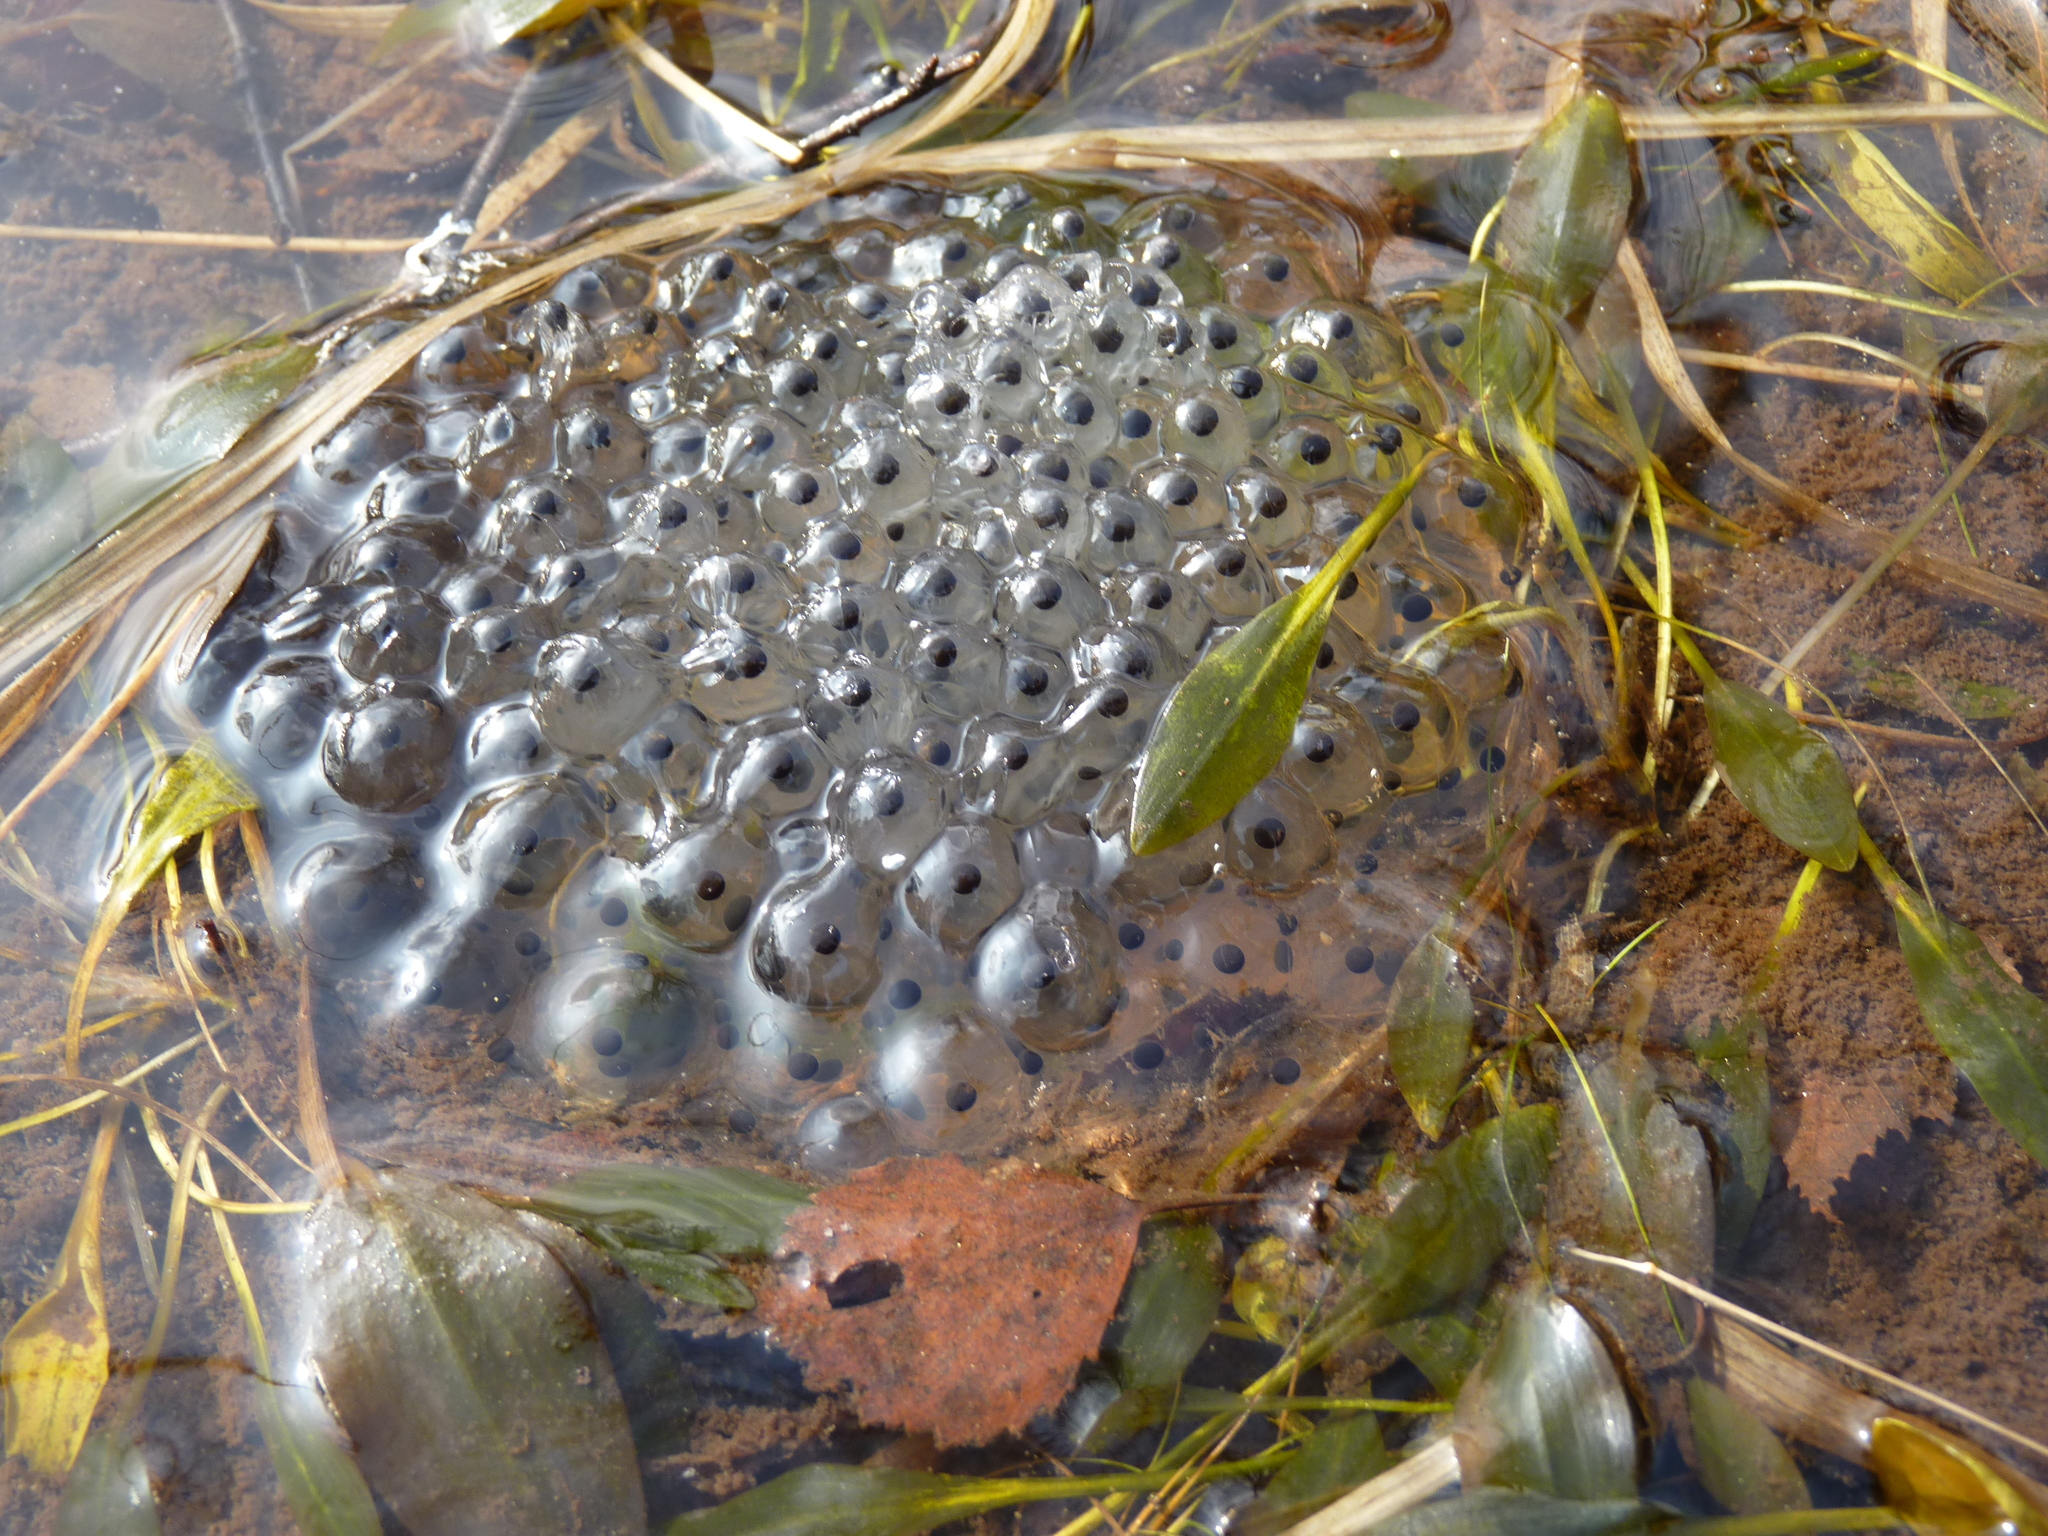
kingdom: Animalia
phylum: Chordata
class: Amphibia
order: Anura
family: Ranidae
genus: Rana
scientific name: Rana temporaria
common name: Common frog
